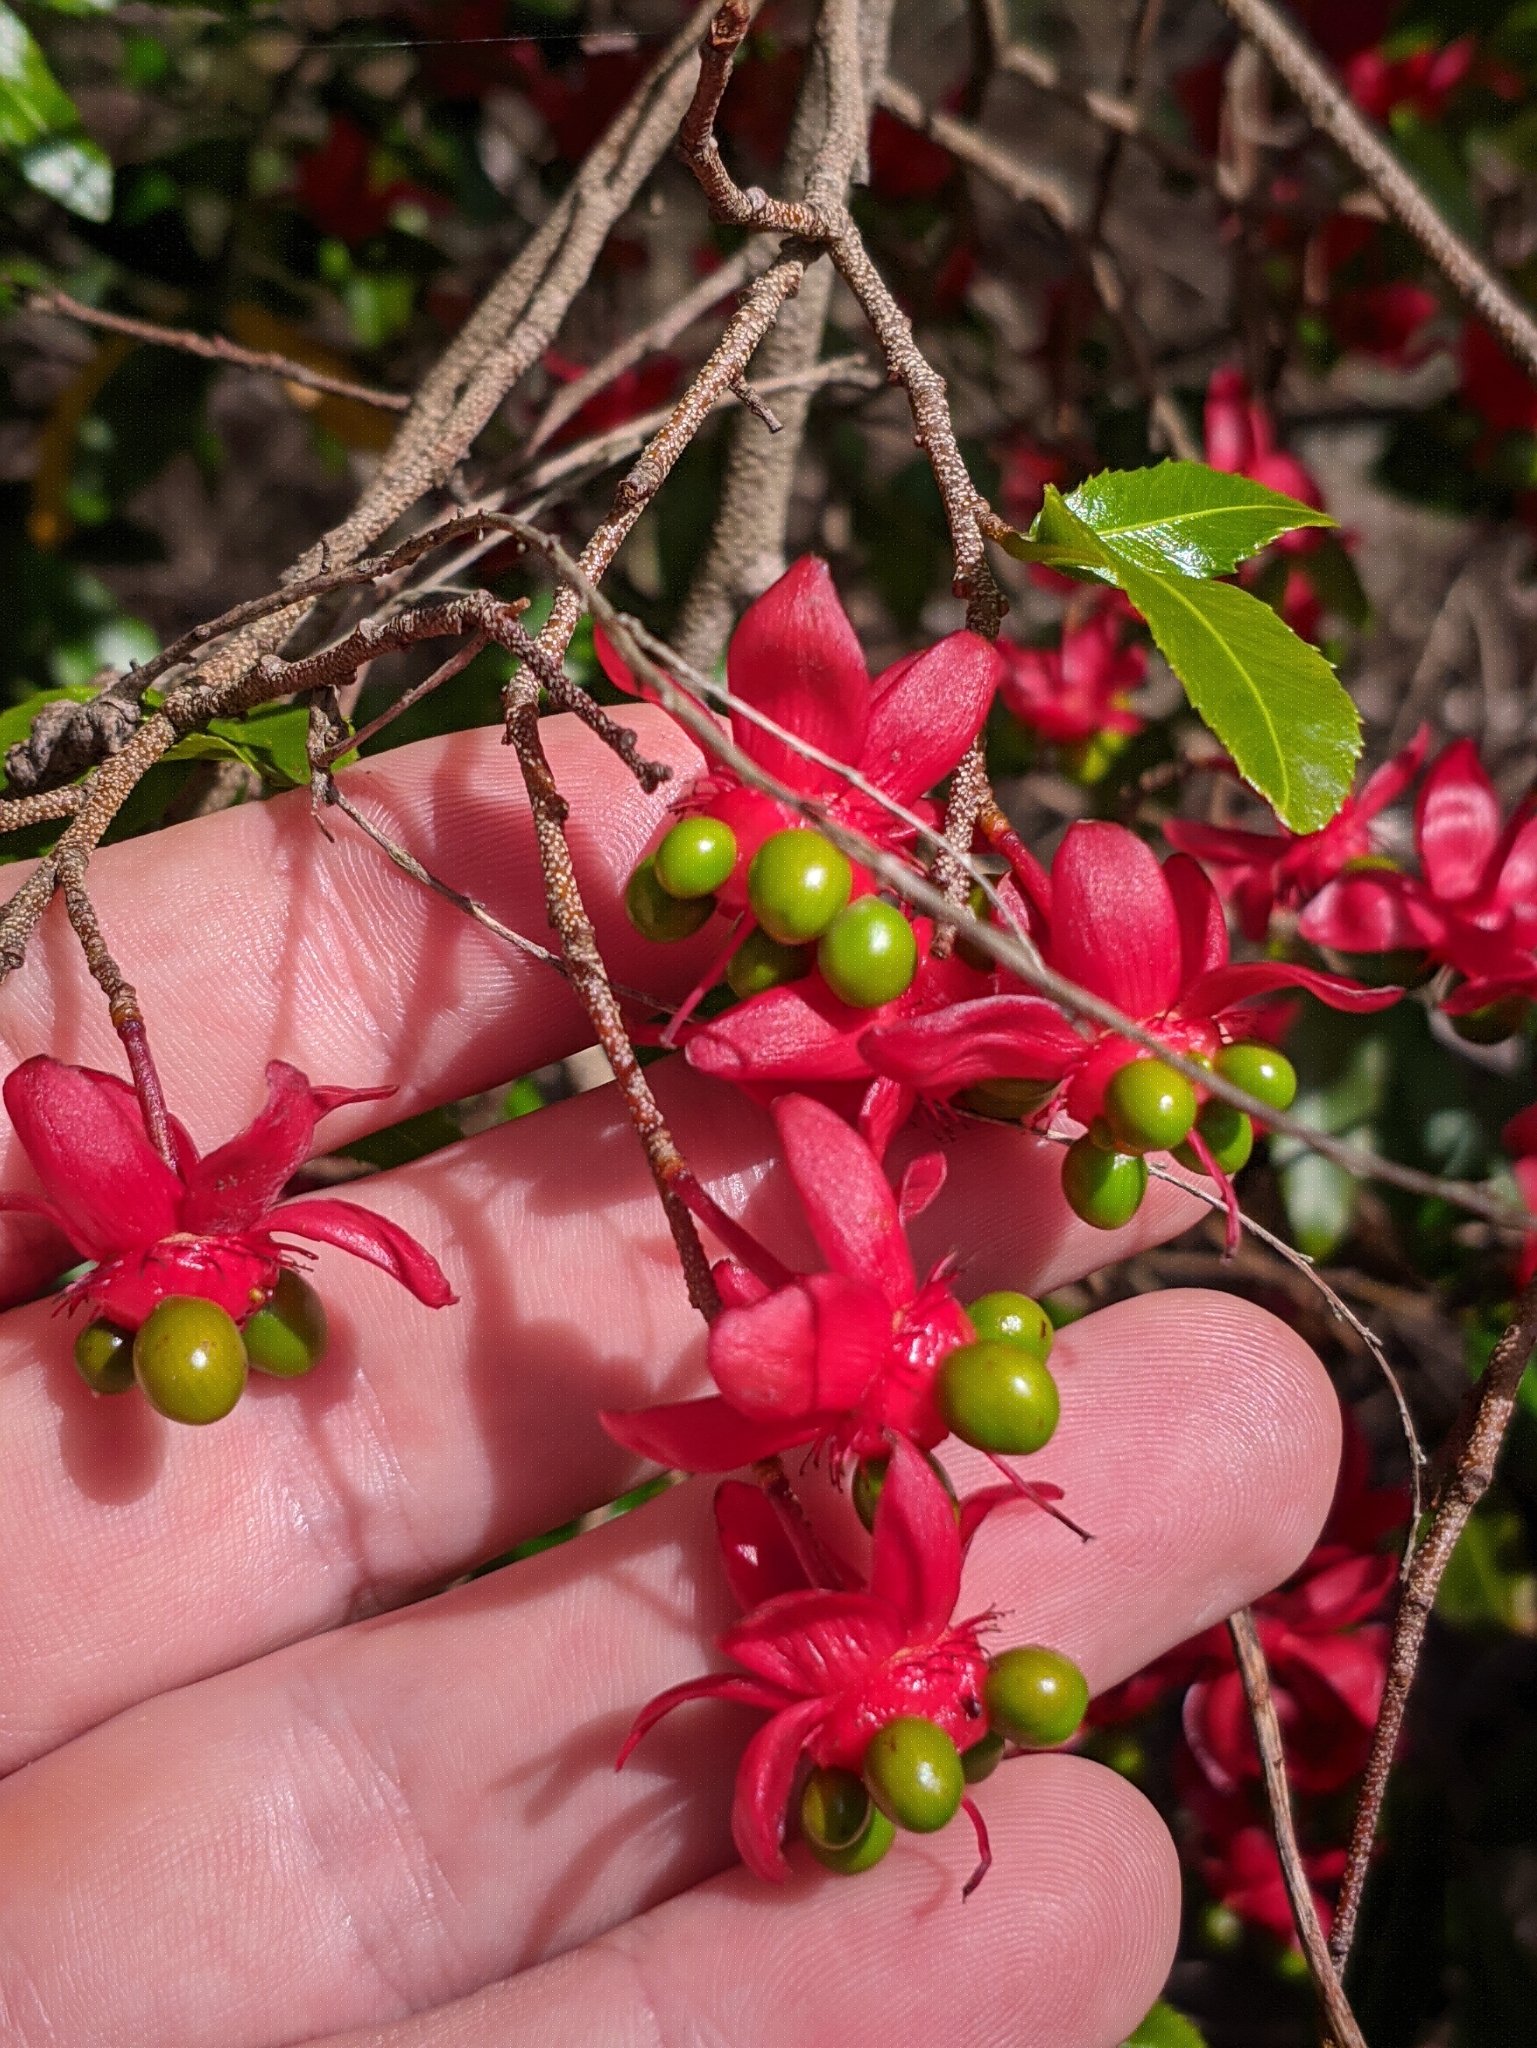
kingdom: Plantae
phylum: Tracheophyta
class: Magnoliopsida
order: Malpighiales
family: Ochnaceae
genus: Ochna
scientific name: Ochna serrulata
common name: Mickey mouse plant
